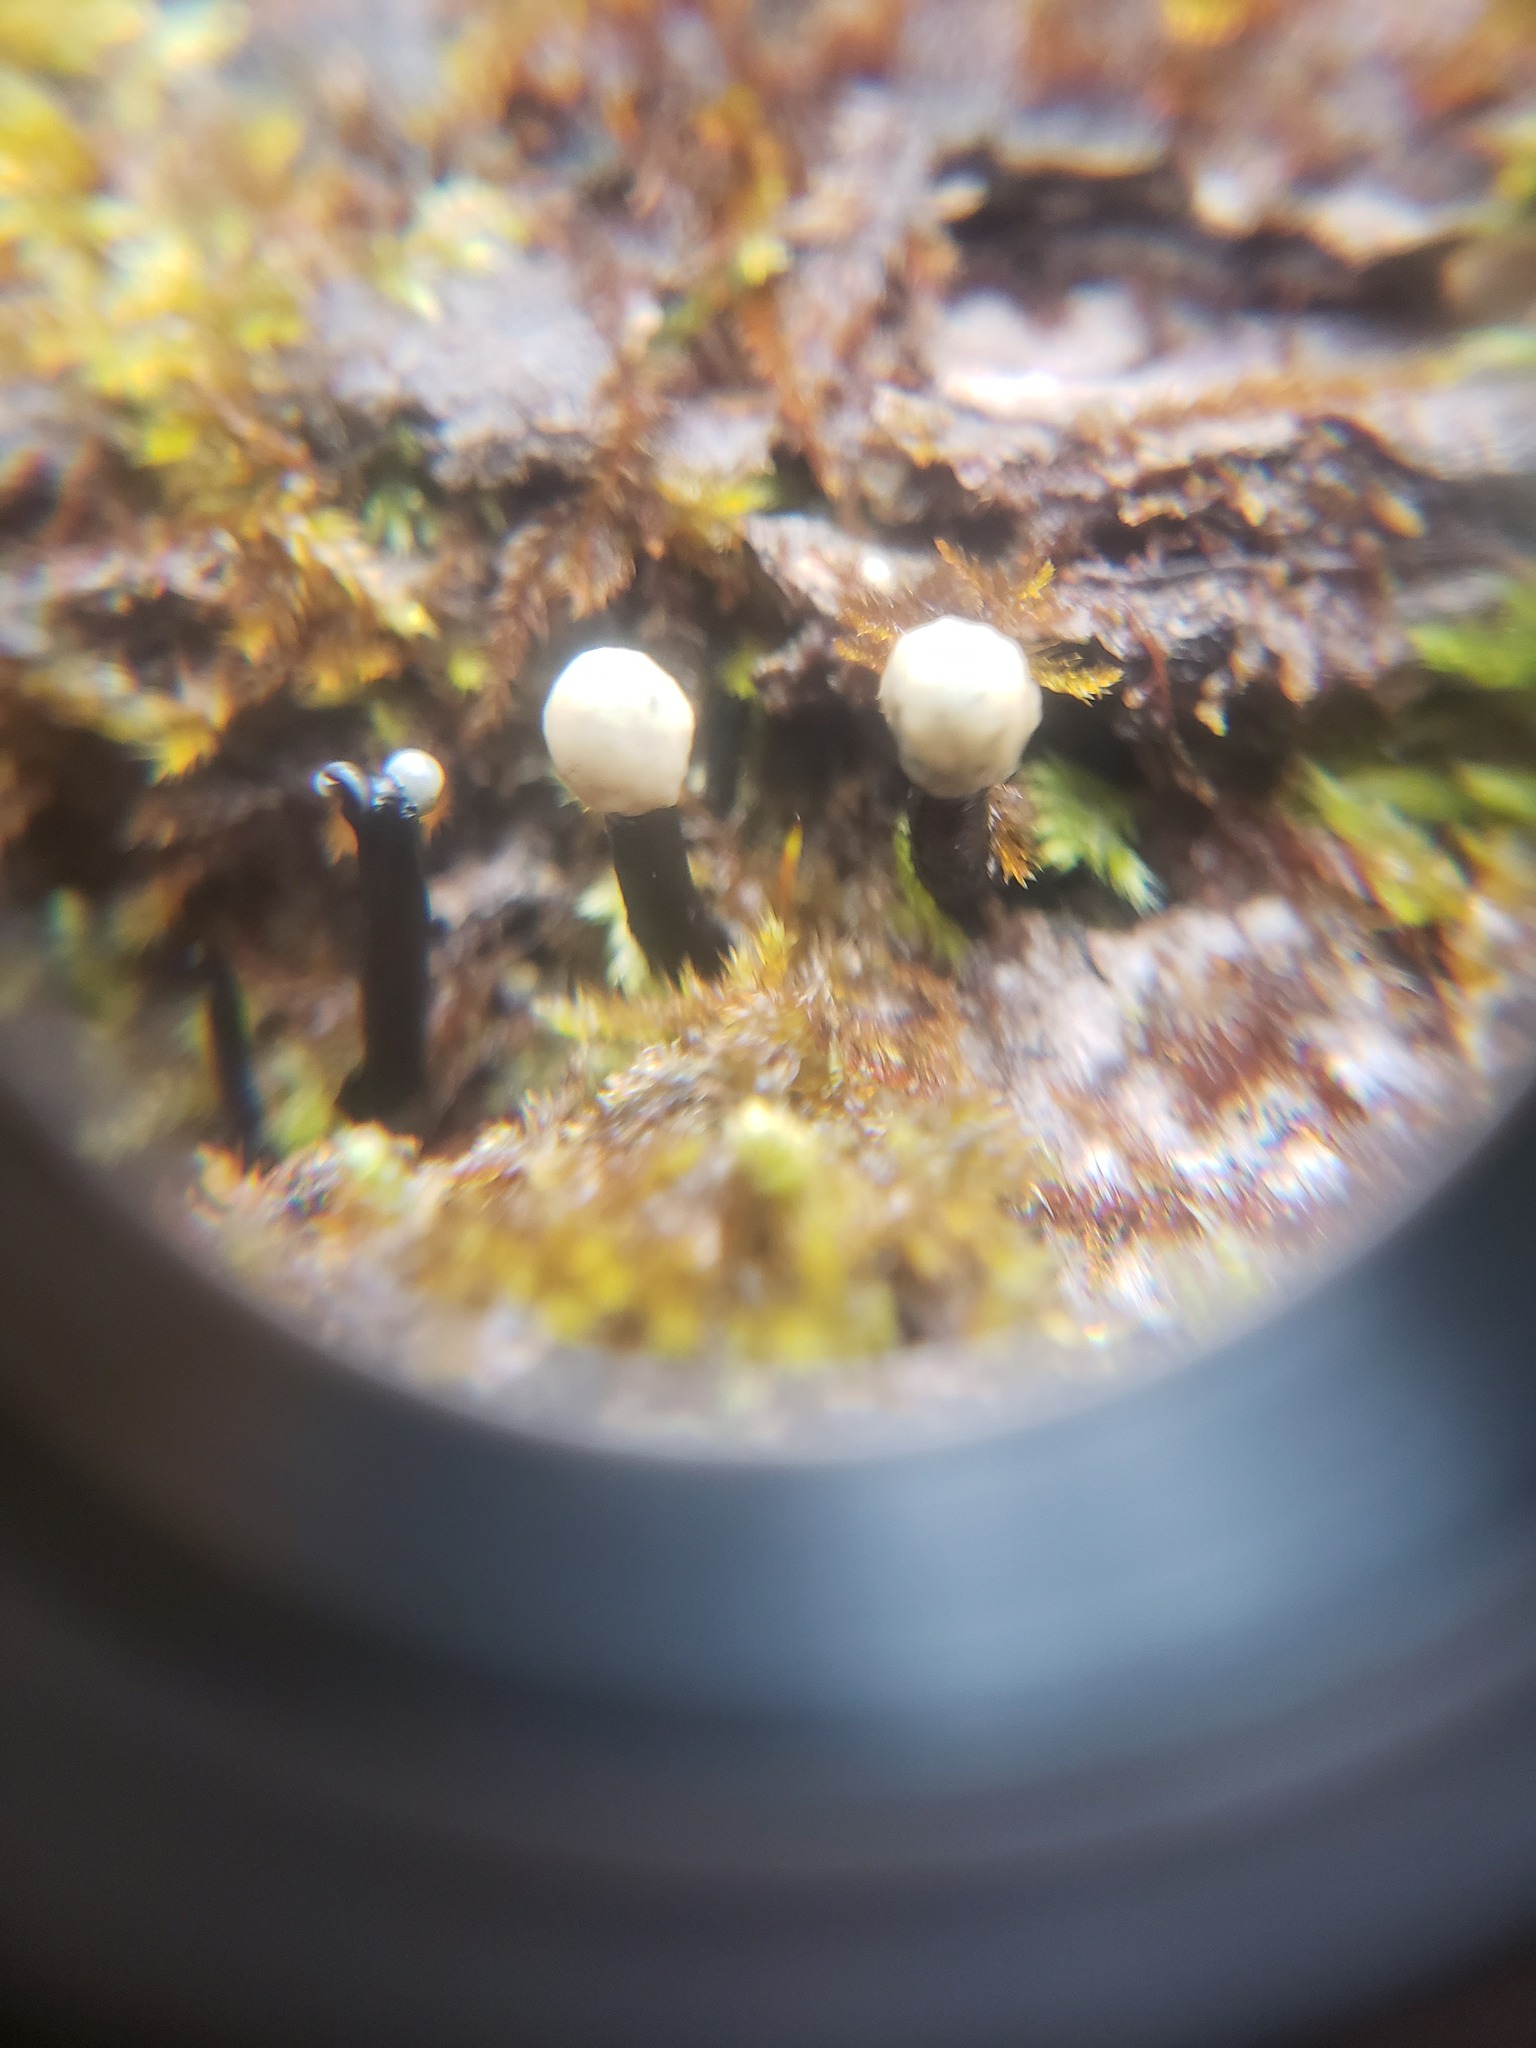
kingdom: Fungi
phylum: Ascomycota
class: Leotiomycetes
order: Helotiales
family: Bulgariaceae
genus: Holwaya
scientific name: Holwaya mucida
